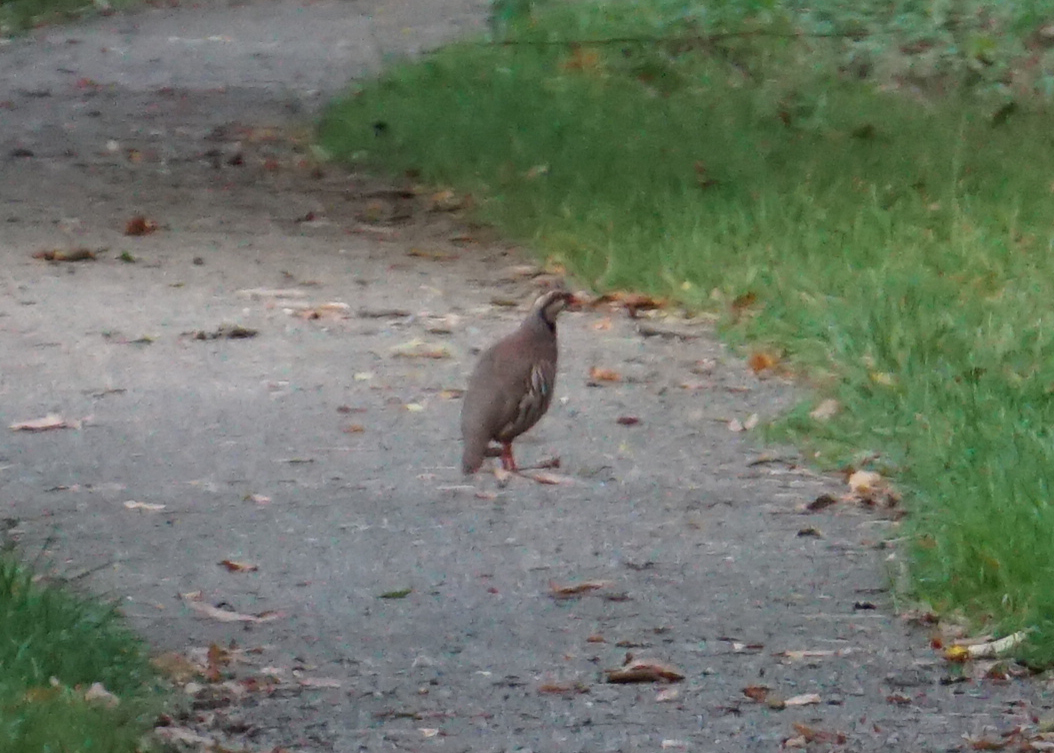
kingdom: Animalia
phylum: Chordata
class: Aves
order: Galliformes
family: Phasianidae
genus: Alectoris
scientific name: Alectoris rufa
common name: Red-legged partridge
